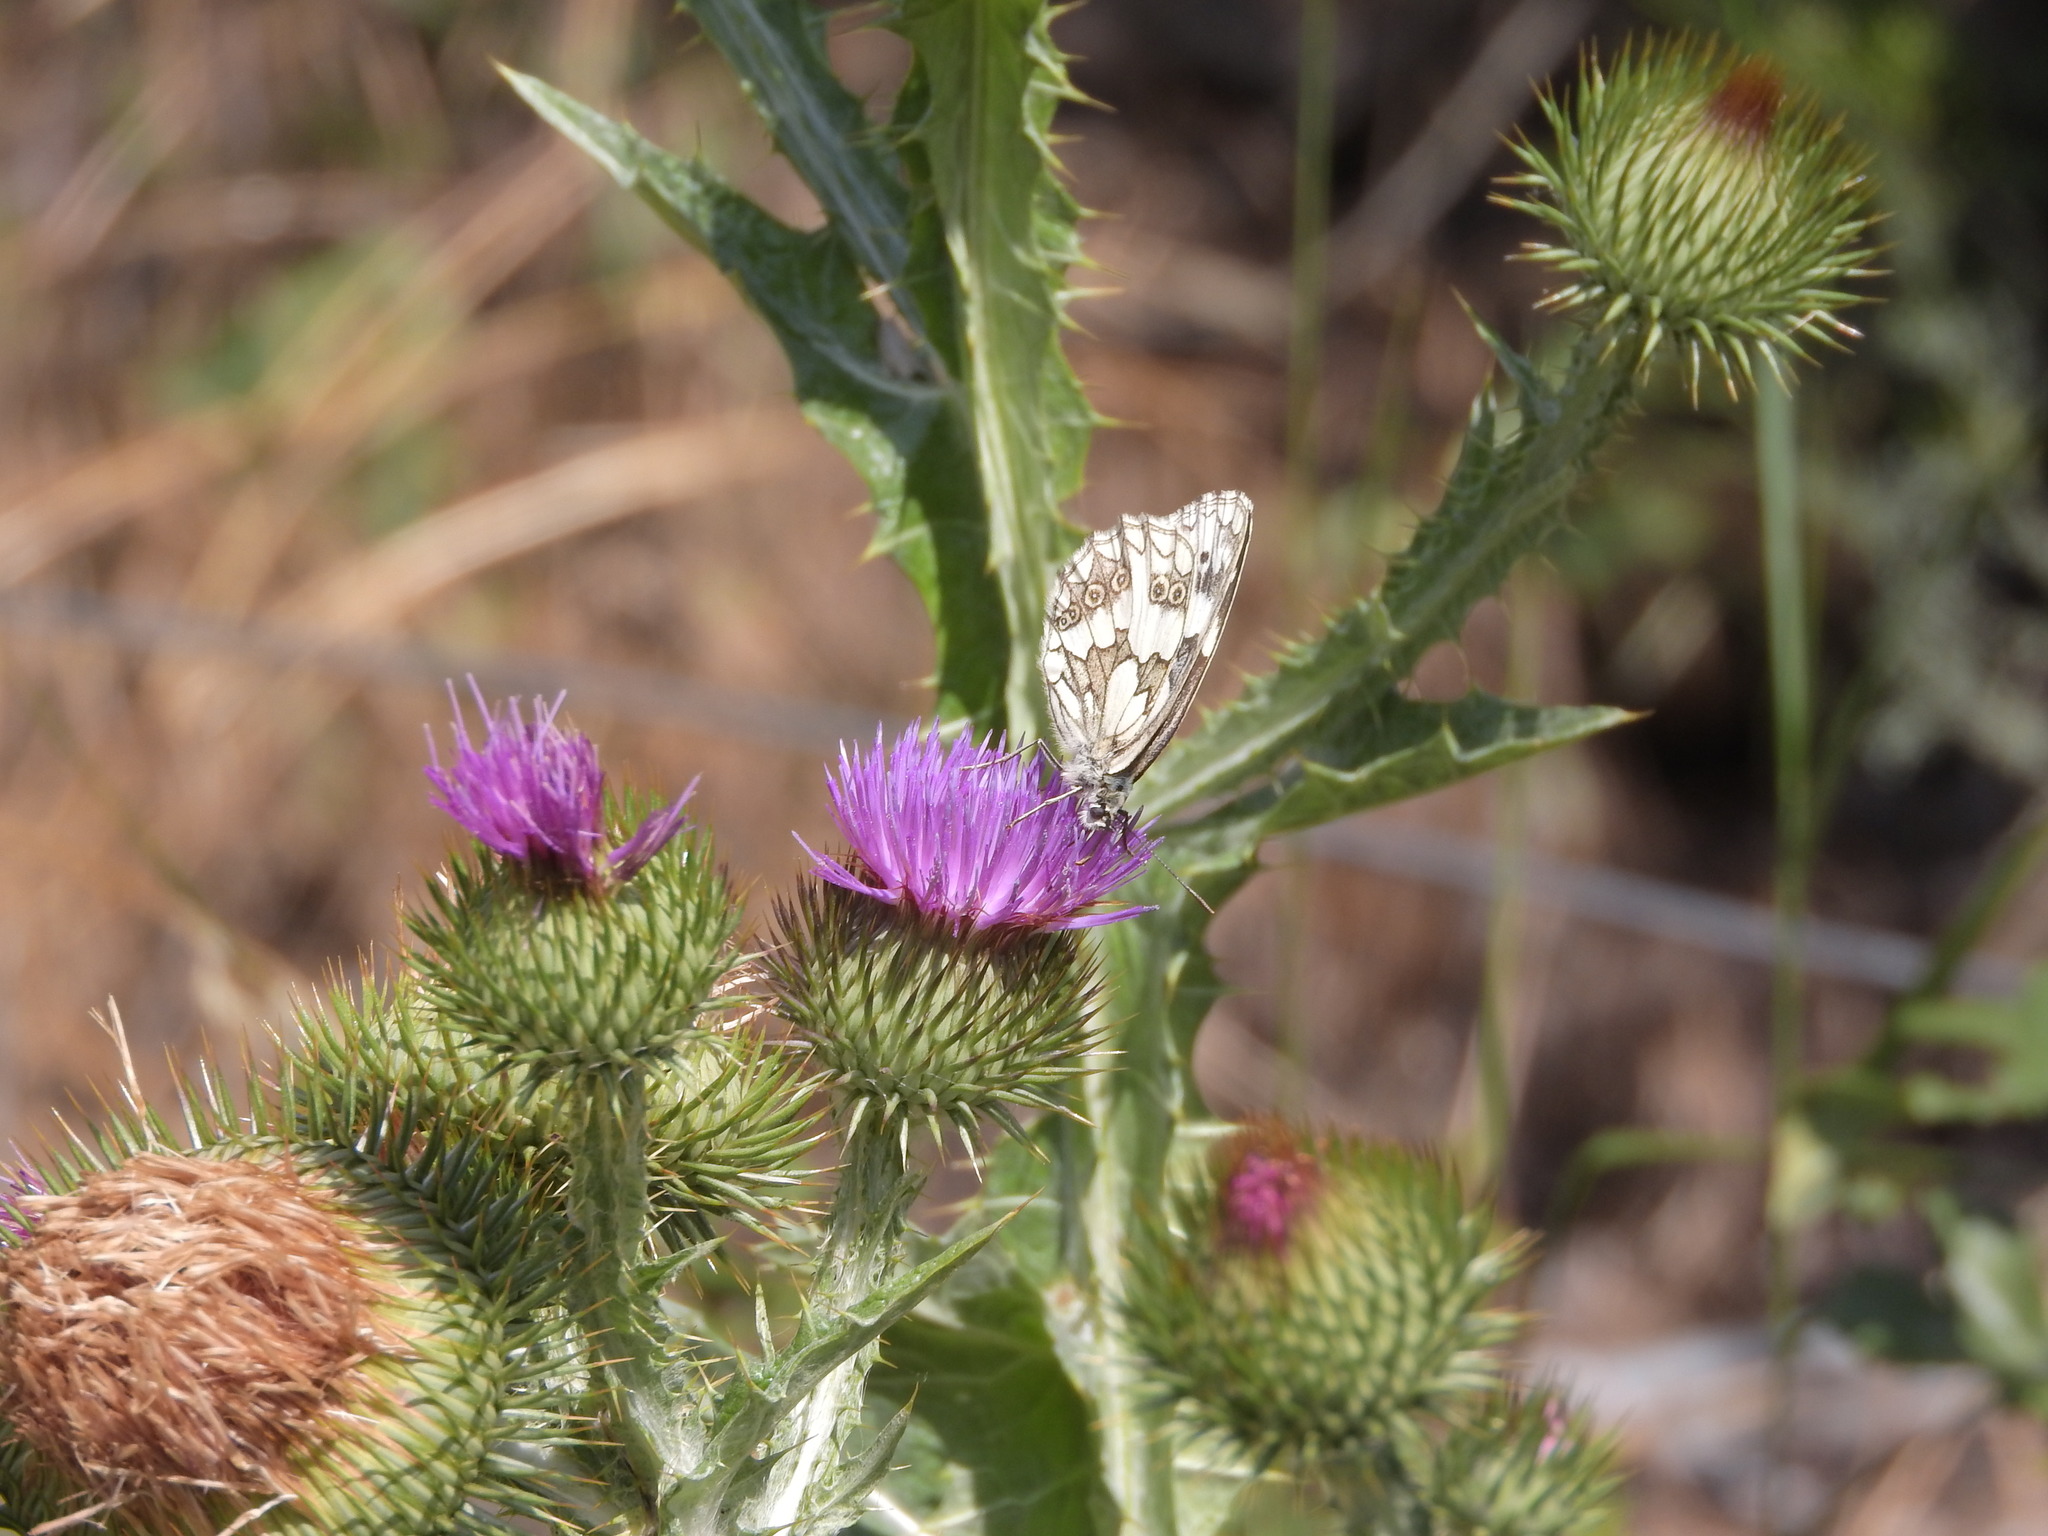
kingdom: Animalia
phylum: Arthropoda
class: Insecta
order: Lepidoptera
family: Nymphalidae
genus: Melanargia
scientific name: Melanargia galathea
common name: Marbled white
